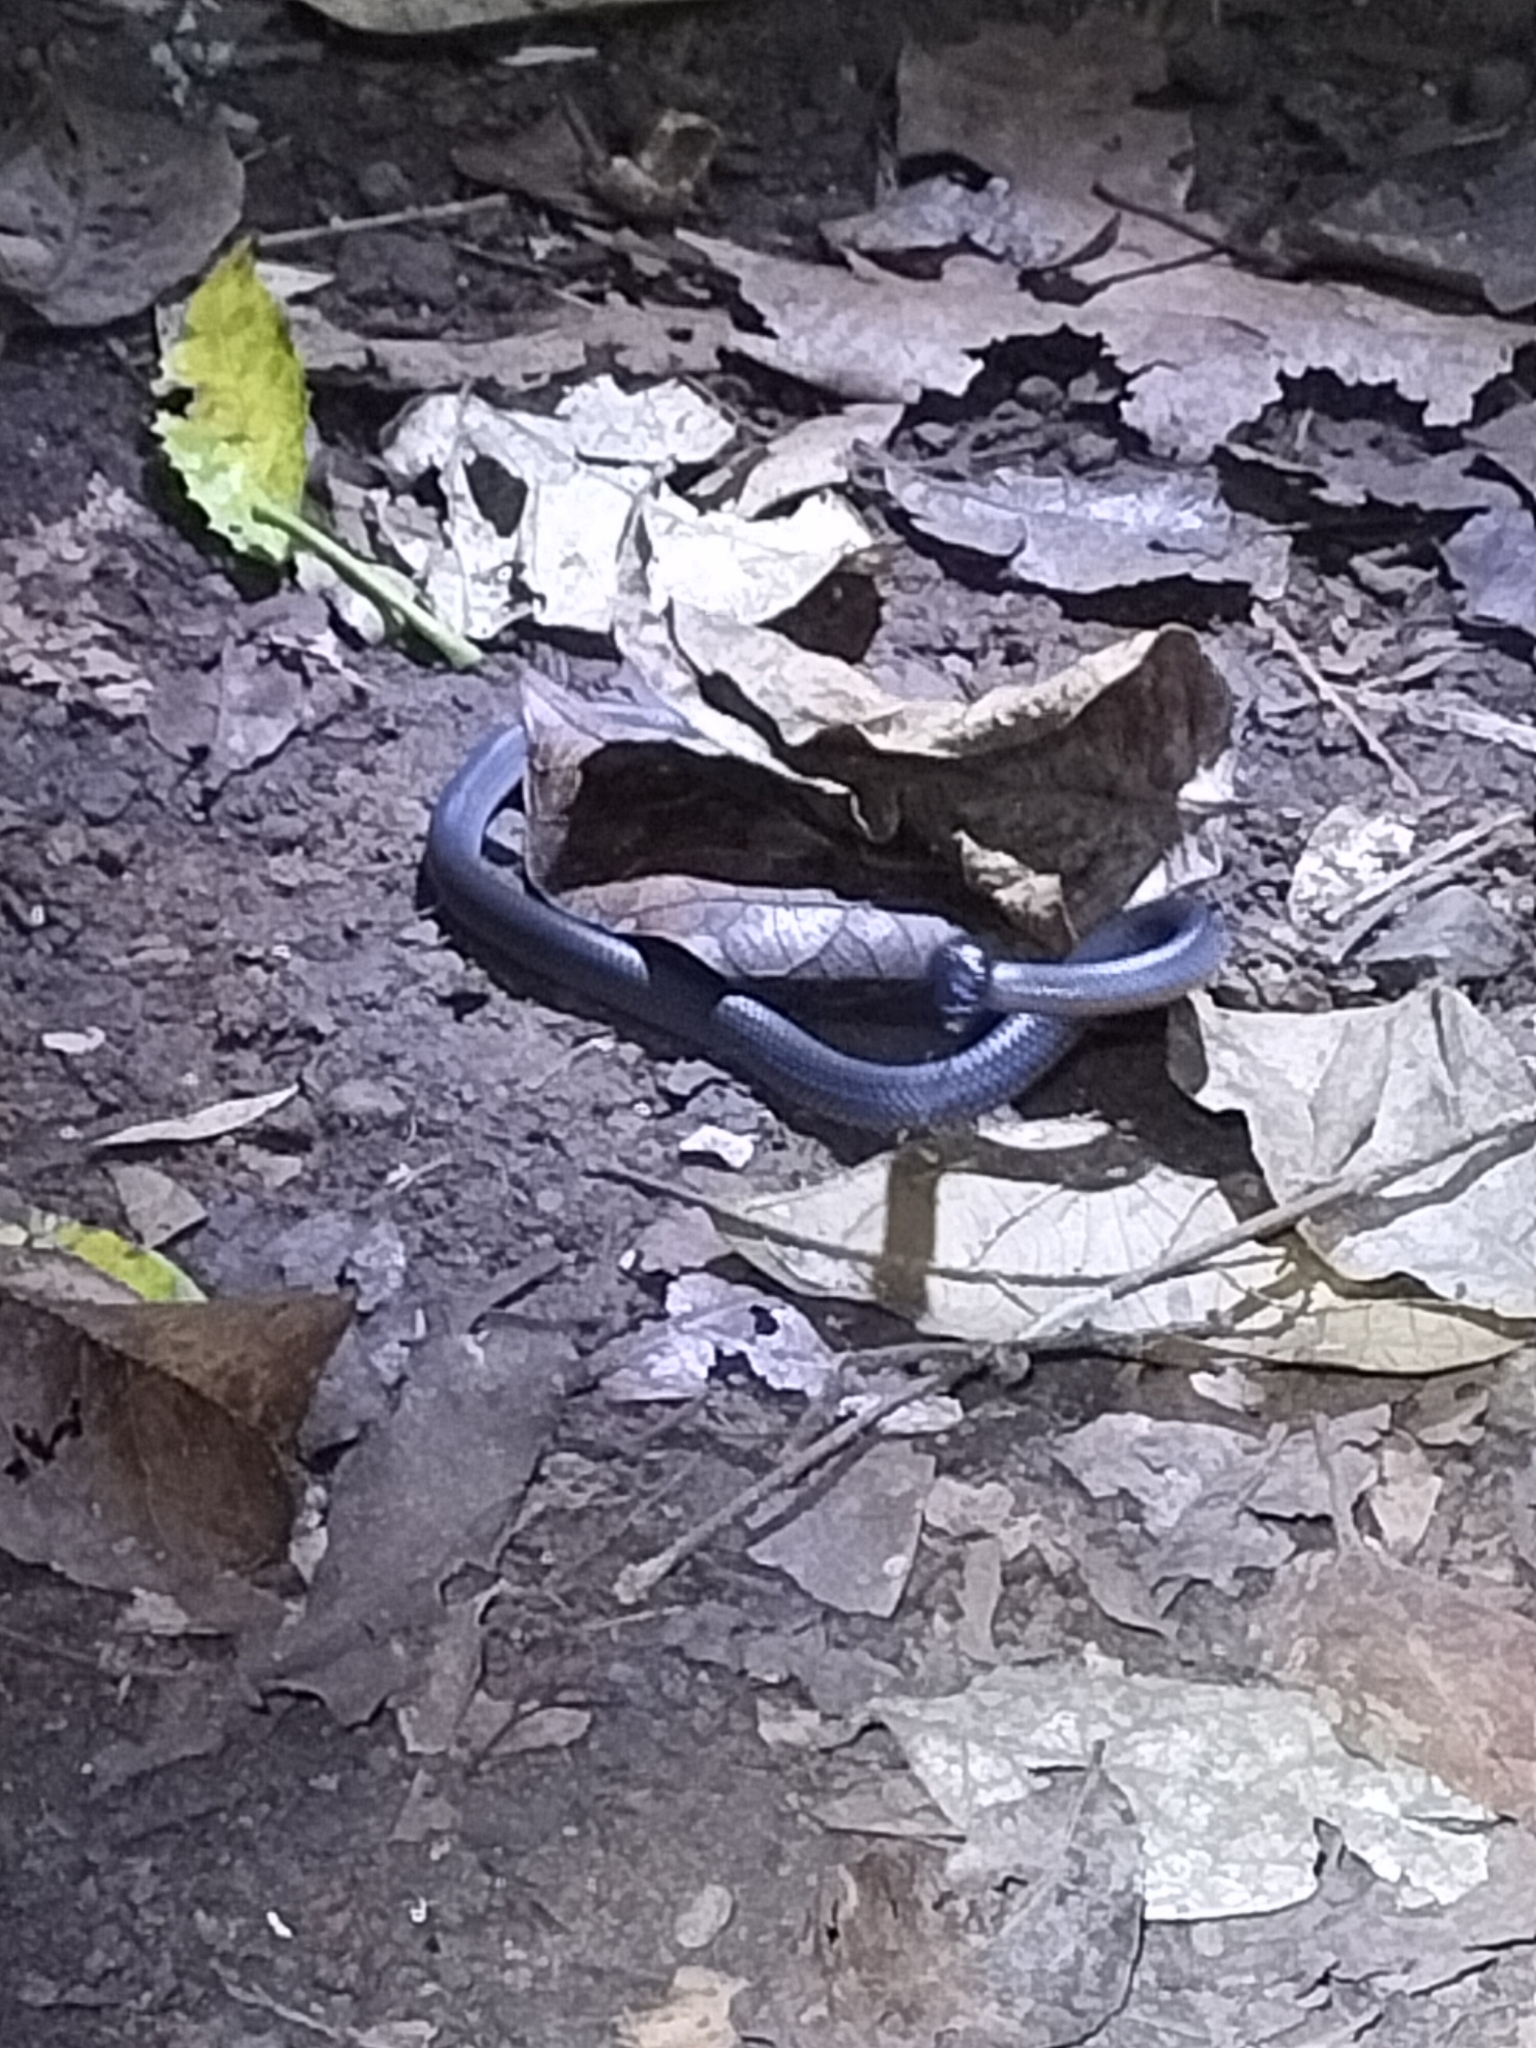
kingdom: Animalia
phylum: Chordata
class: Squamata
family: Elapidae
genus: Cryptophis
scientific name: Cryptophis nigrescens
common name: Eastern small-eyed snake
